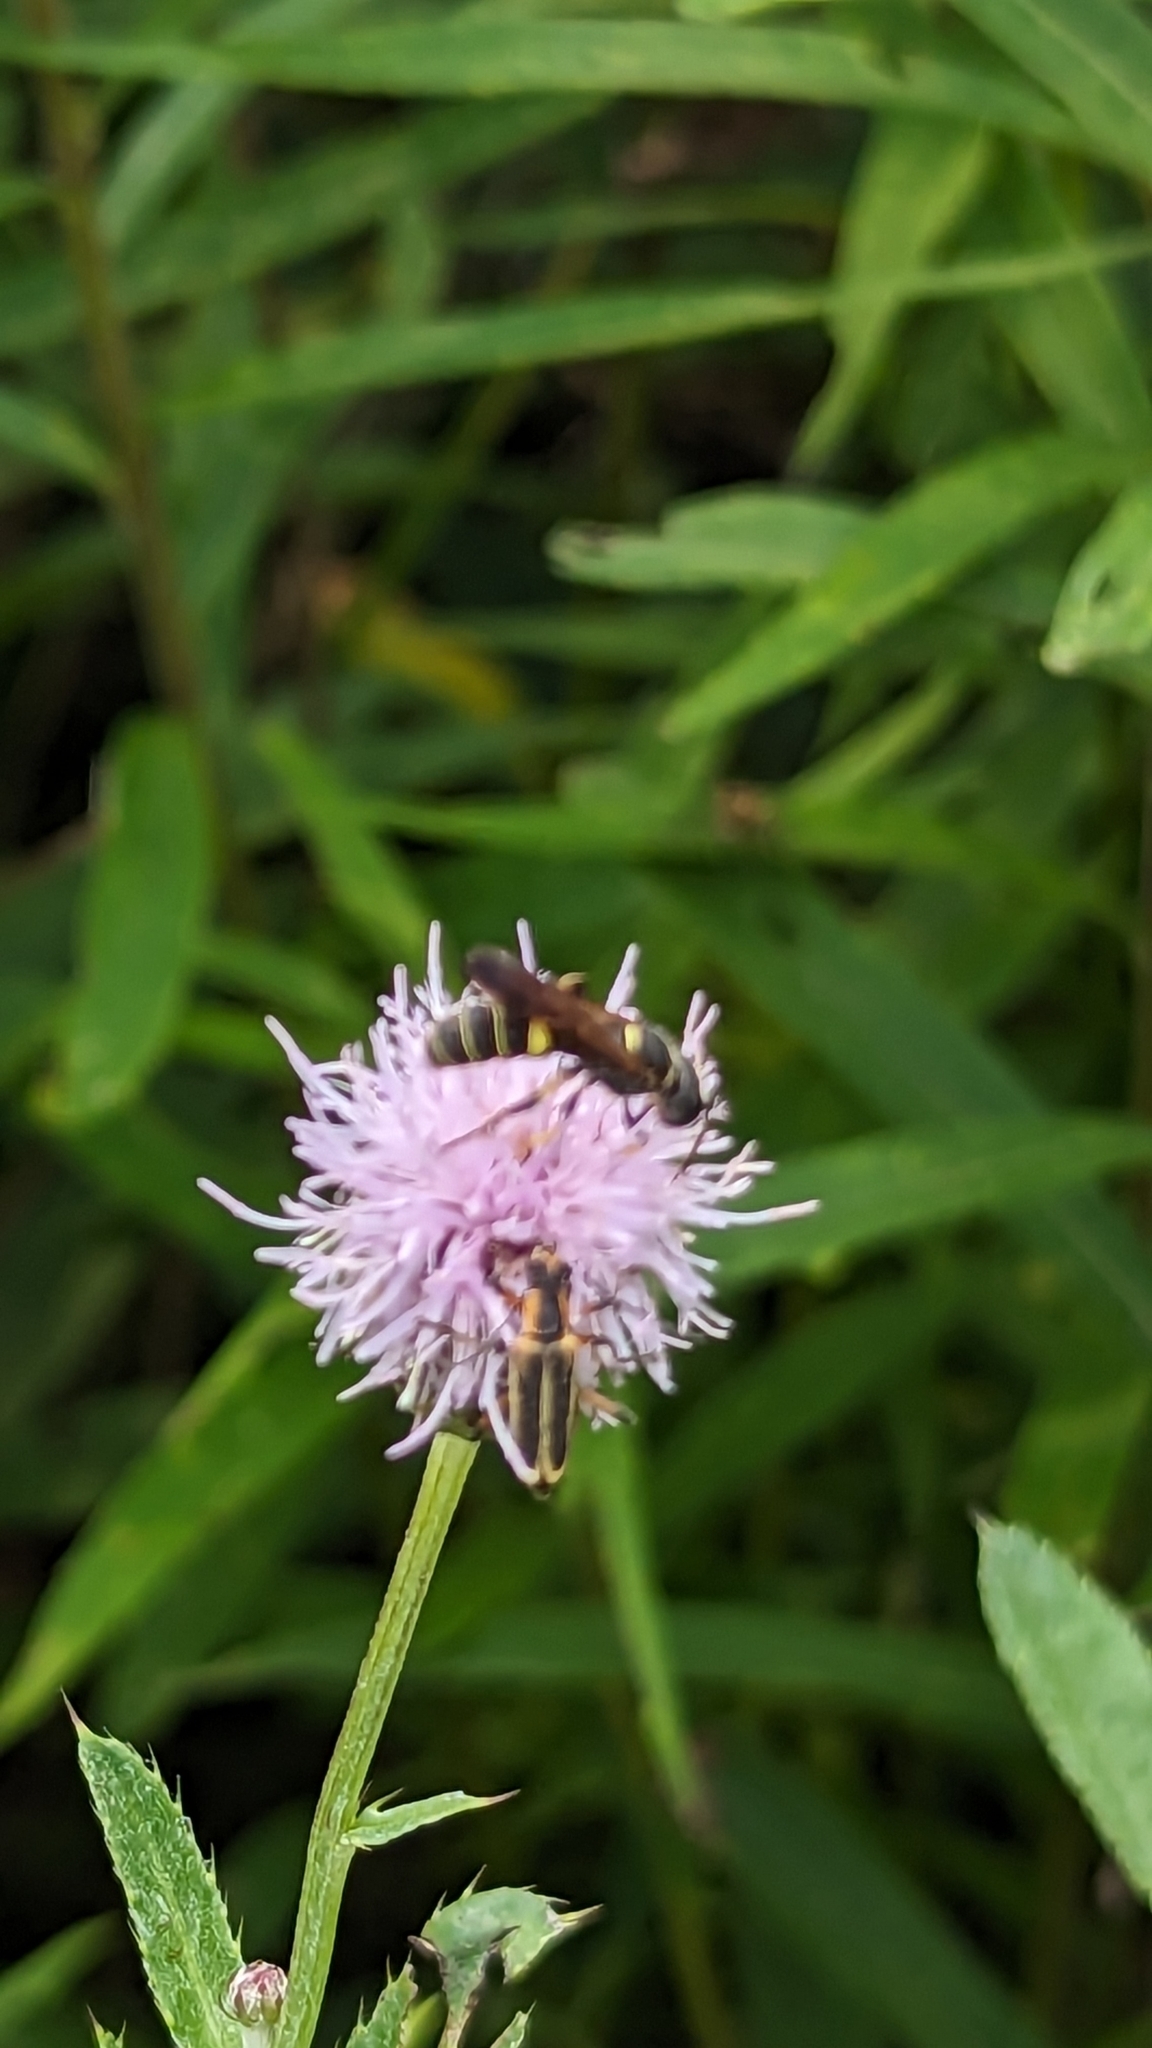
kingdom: Animalia
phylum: Arthropoda
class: Insecta
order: Coleoptera
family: Cantharidae
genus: Chauliognathus
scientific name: Chauliognathus marginatus
